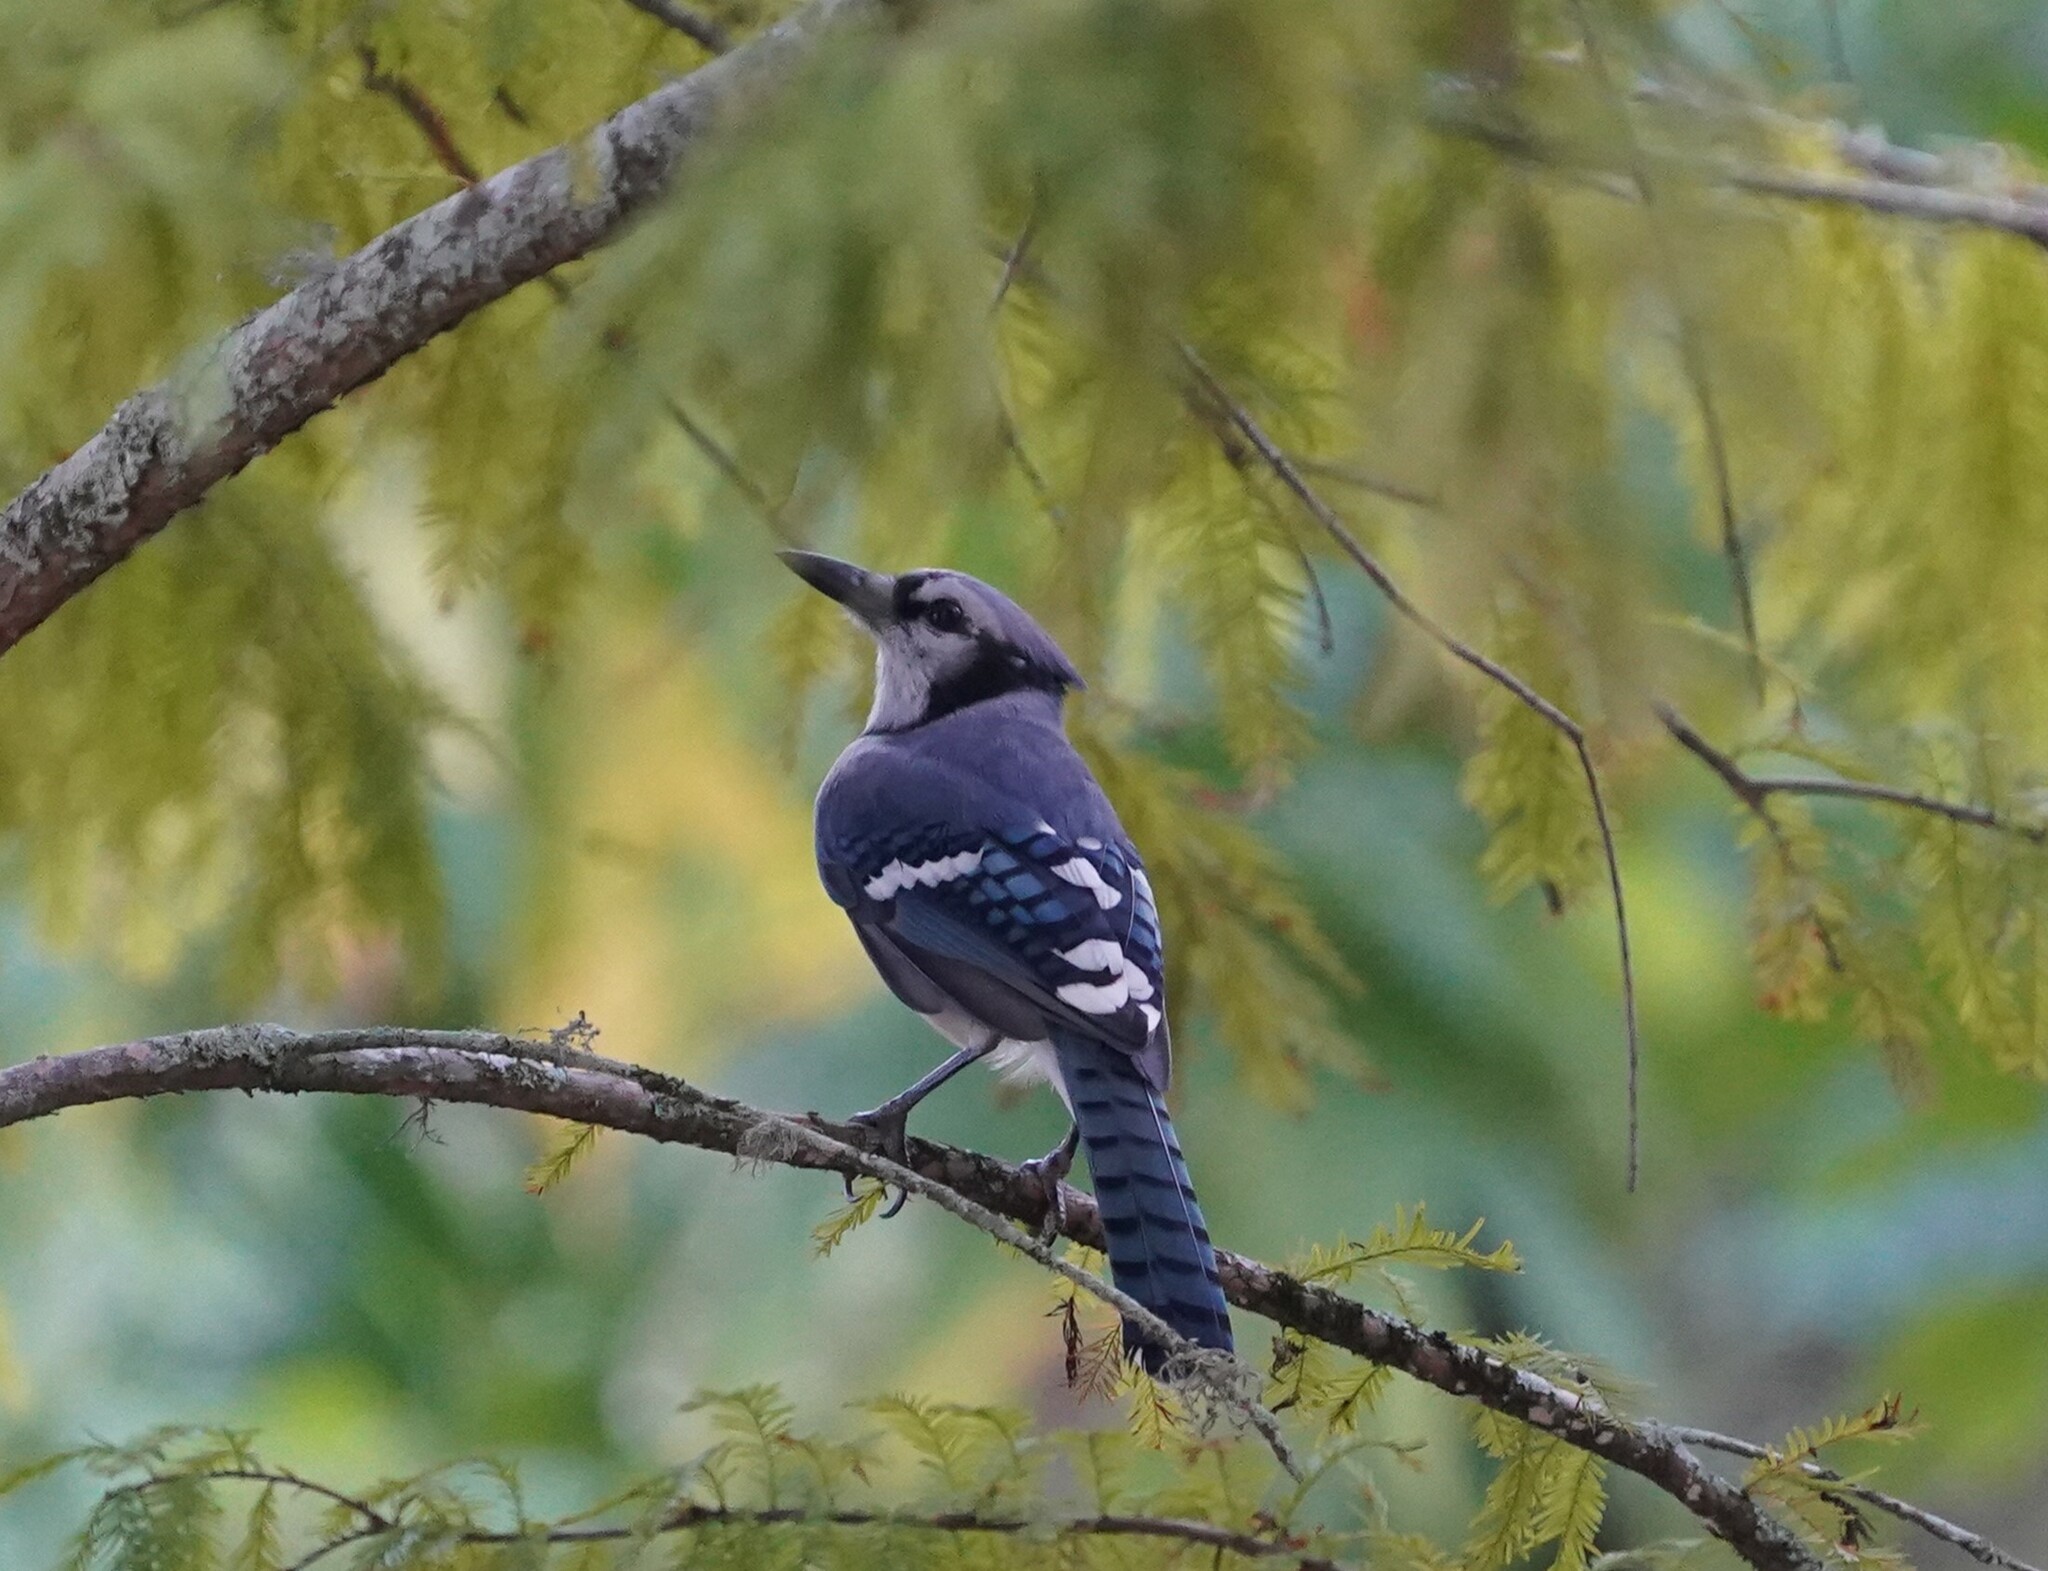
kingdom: Animalia
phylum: Chordata
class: Aves
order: Passeriformes
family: Corvidae
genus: Cyanocitta
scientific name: Cyanocitta cristata
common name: Blue jay
